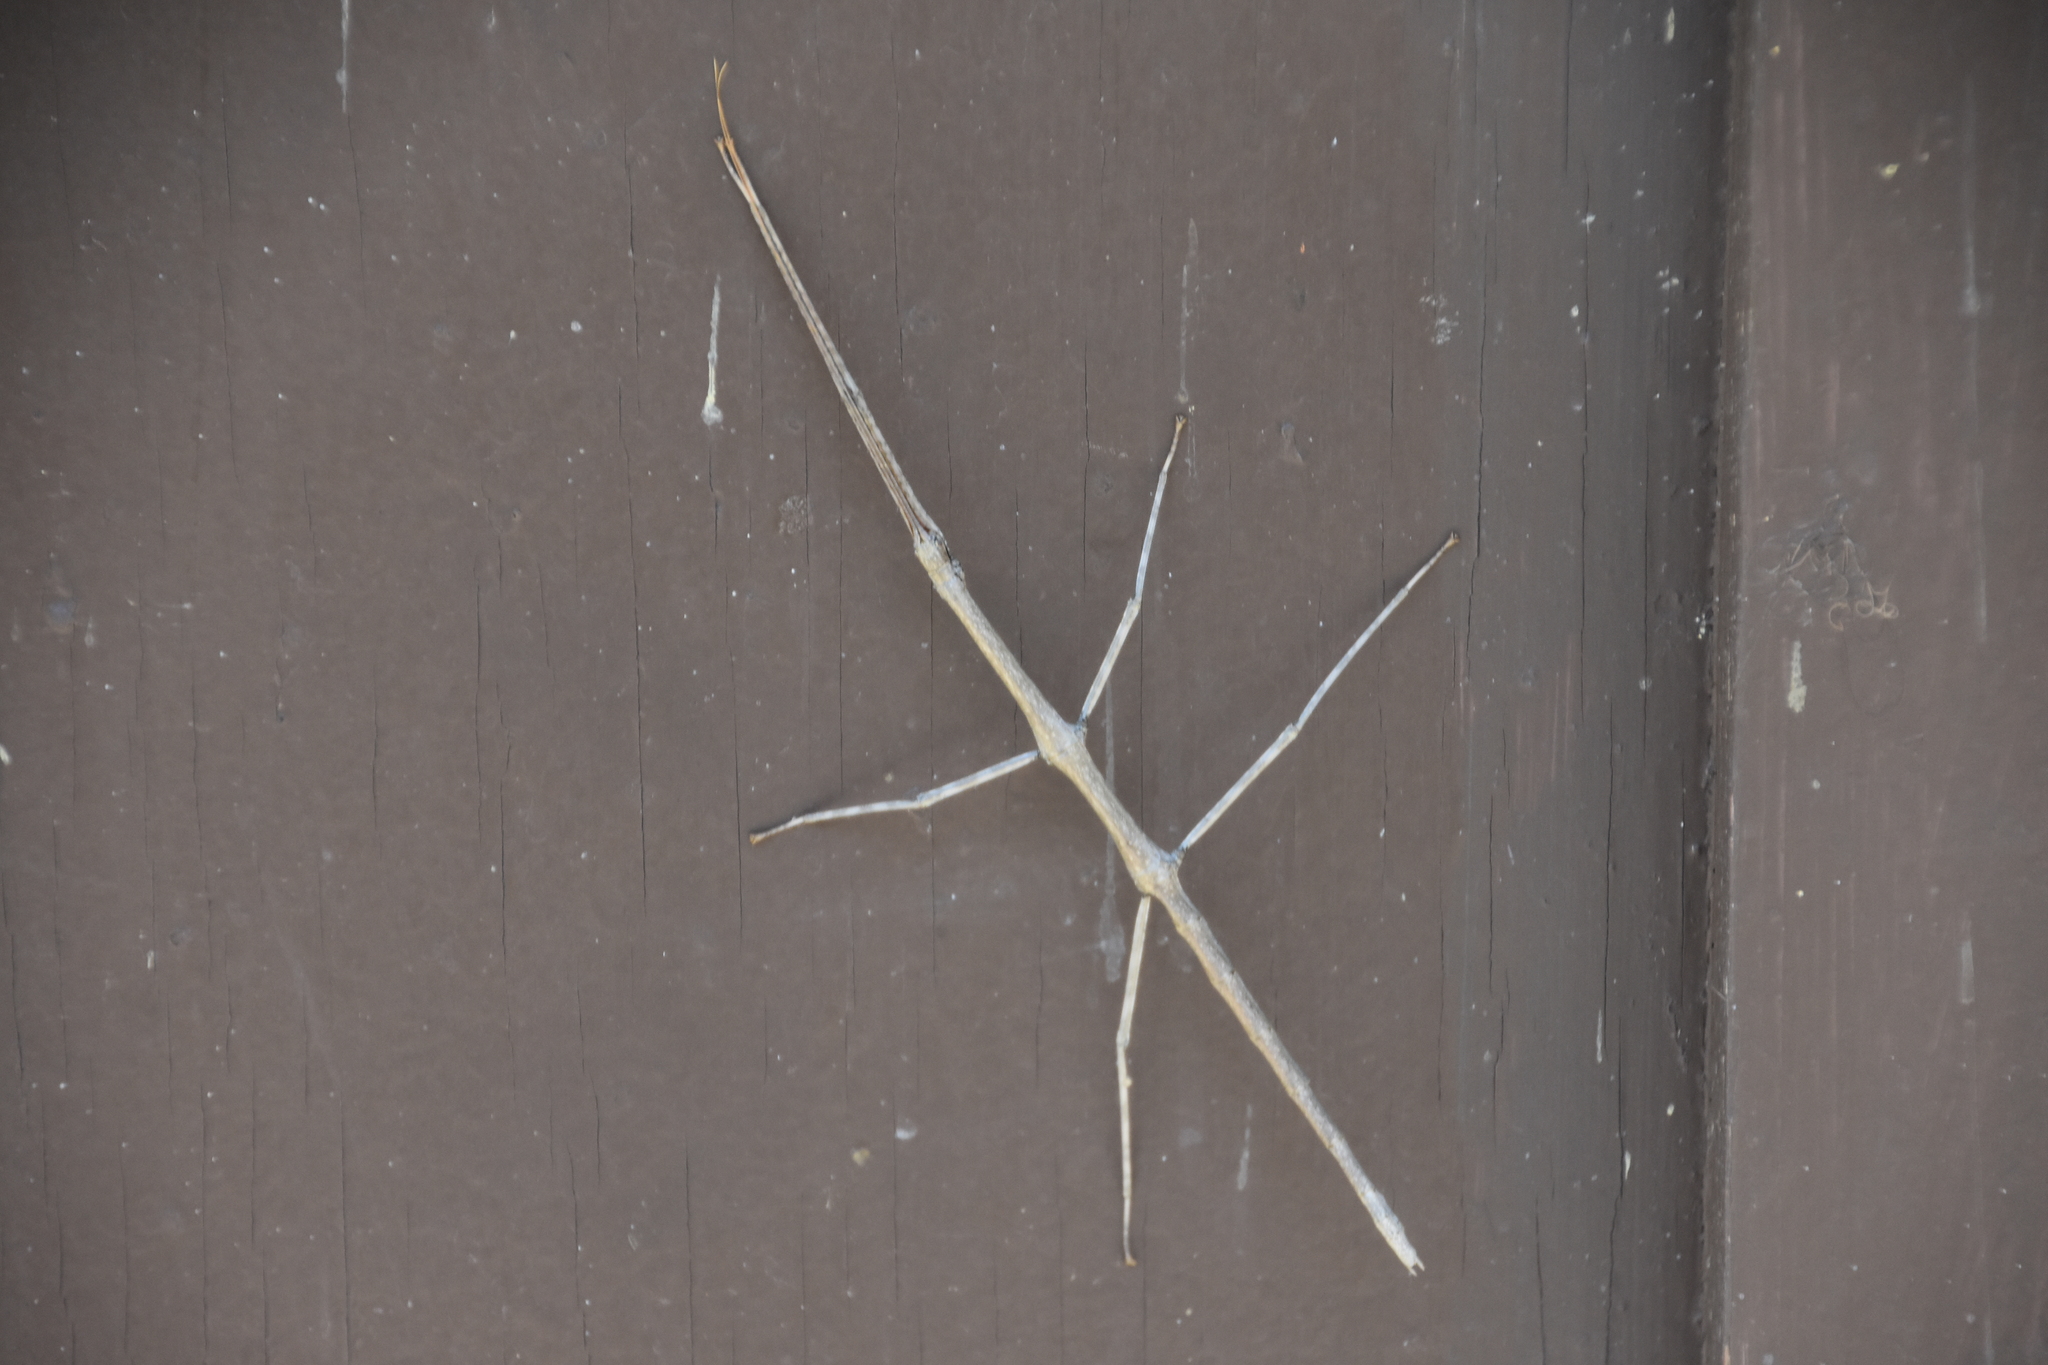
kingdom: Animalia
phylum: Arthropoda
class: Insecta
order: Phasmida
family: Diapheromeridae
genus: Diapheromera
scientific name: Diapheromera femorata
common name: Common american walkingstick
